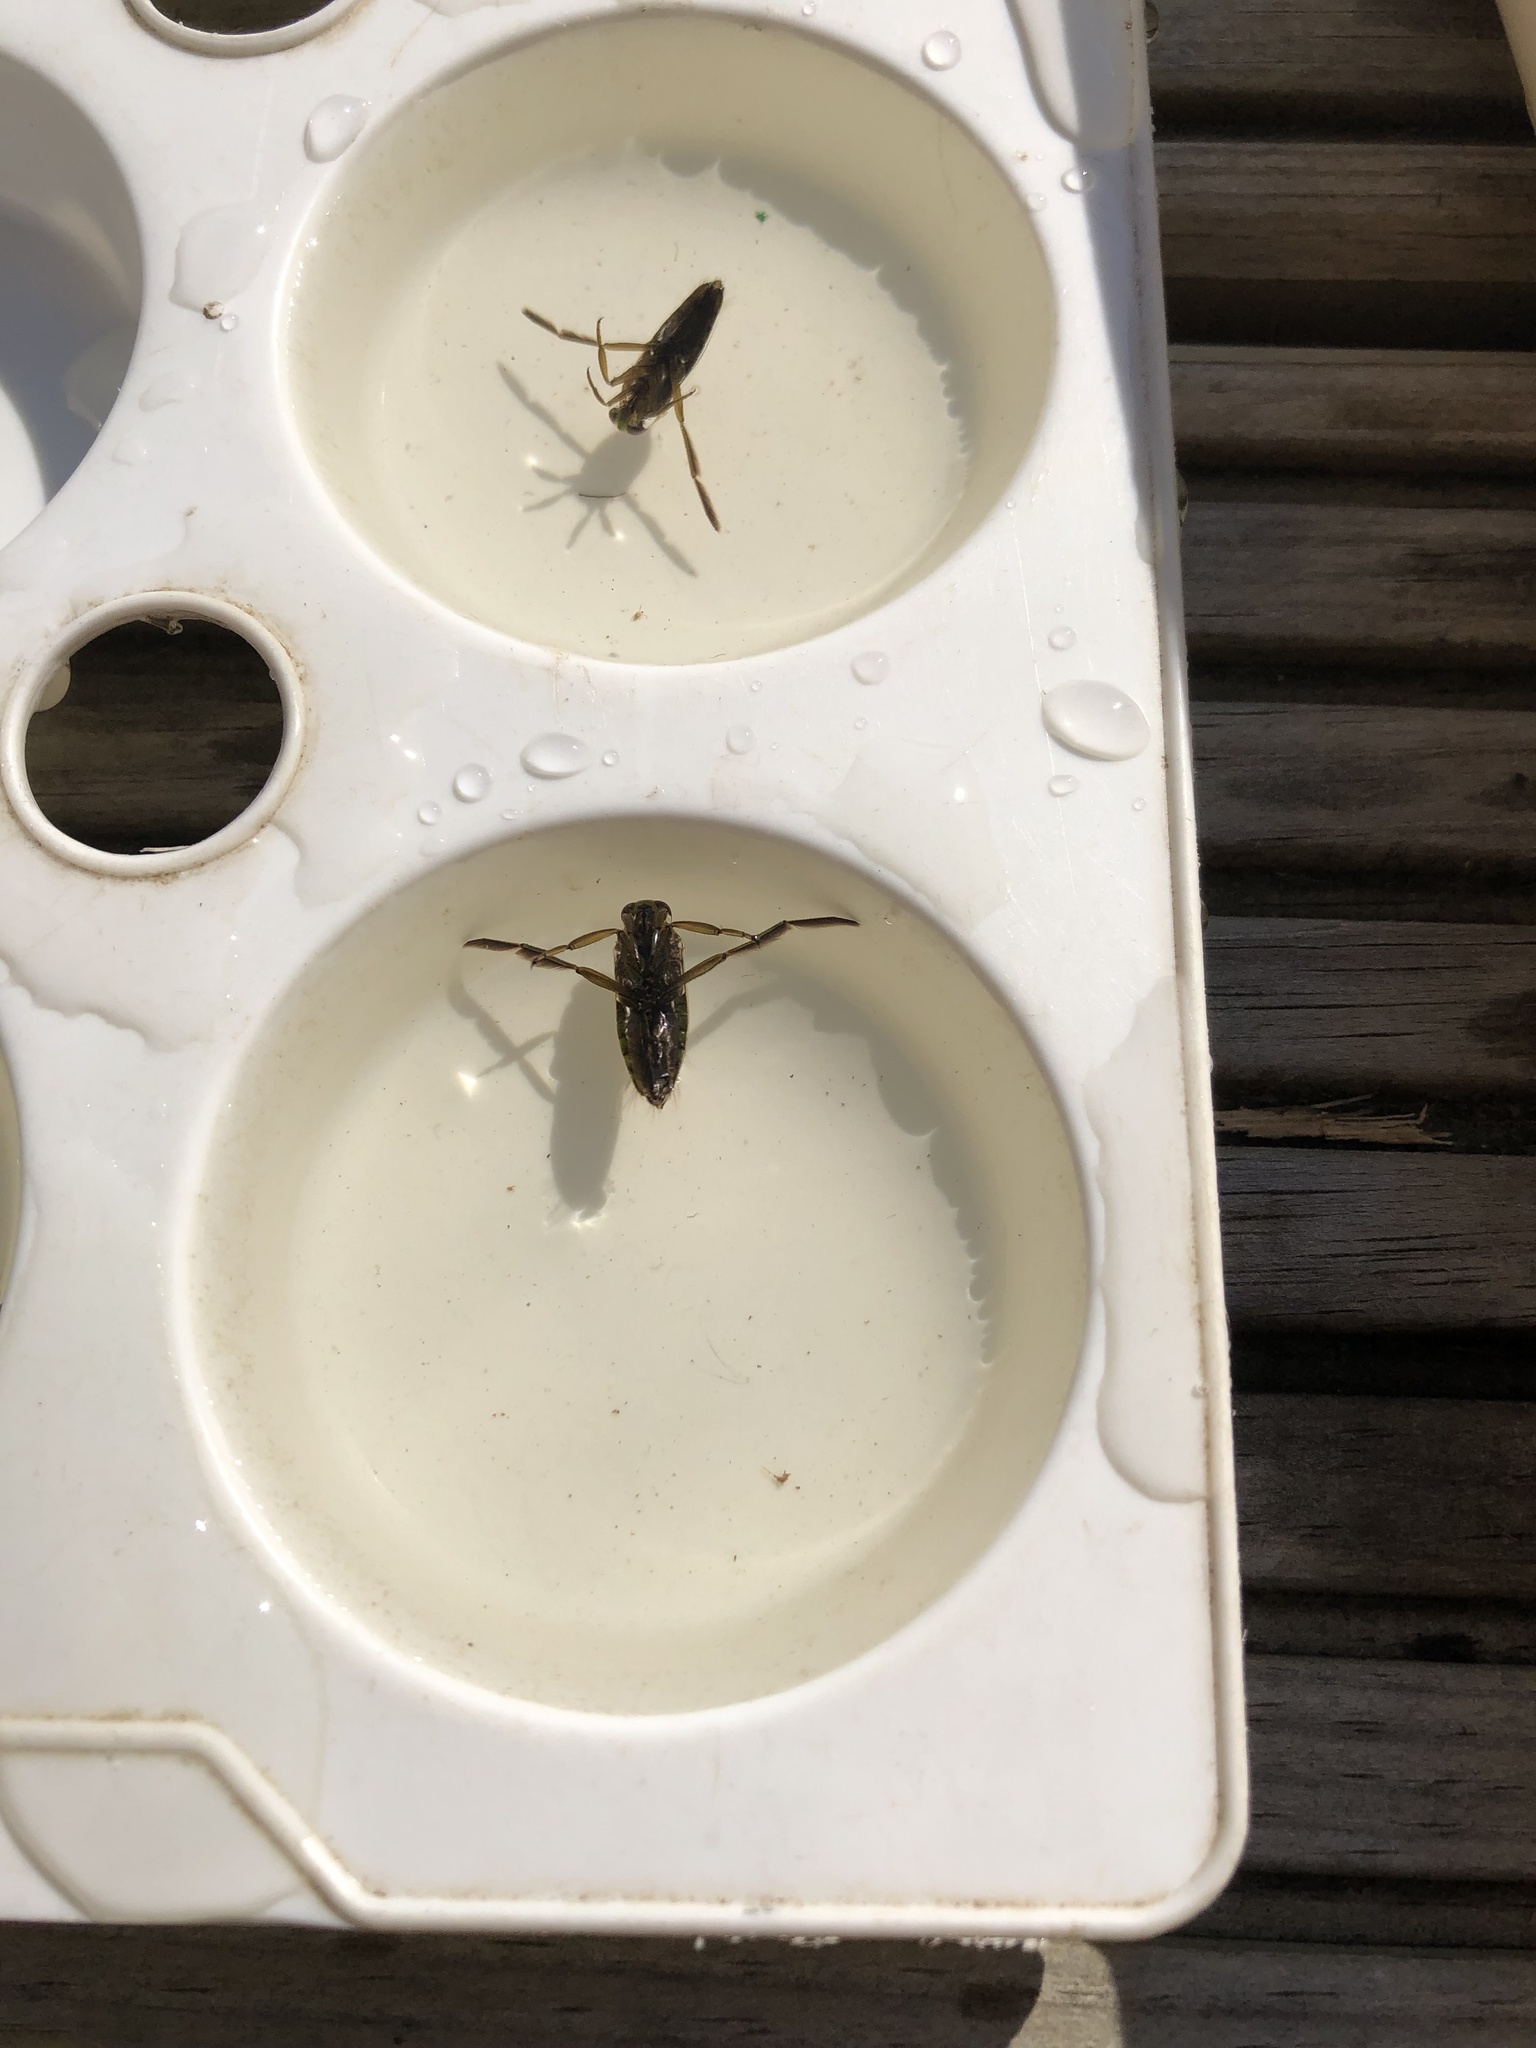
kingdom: Animalia
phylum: Arthropoda
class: Insecta
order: Hemiptera
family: Notonectidae
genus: Notonecta
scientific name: Notonecta
